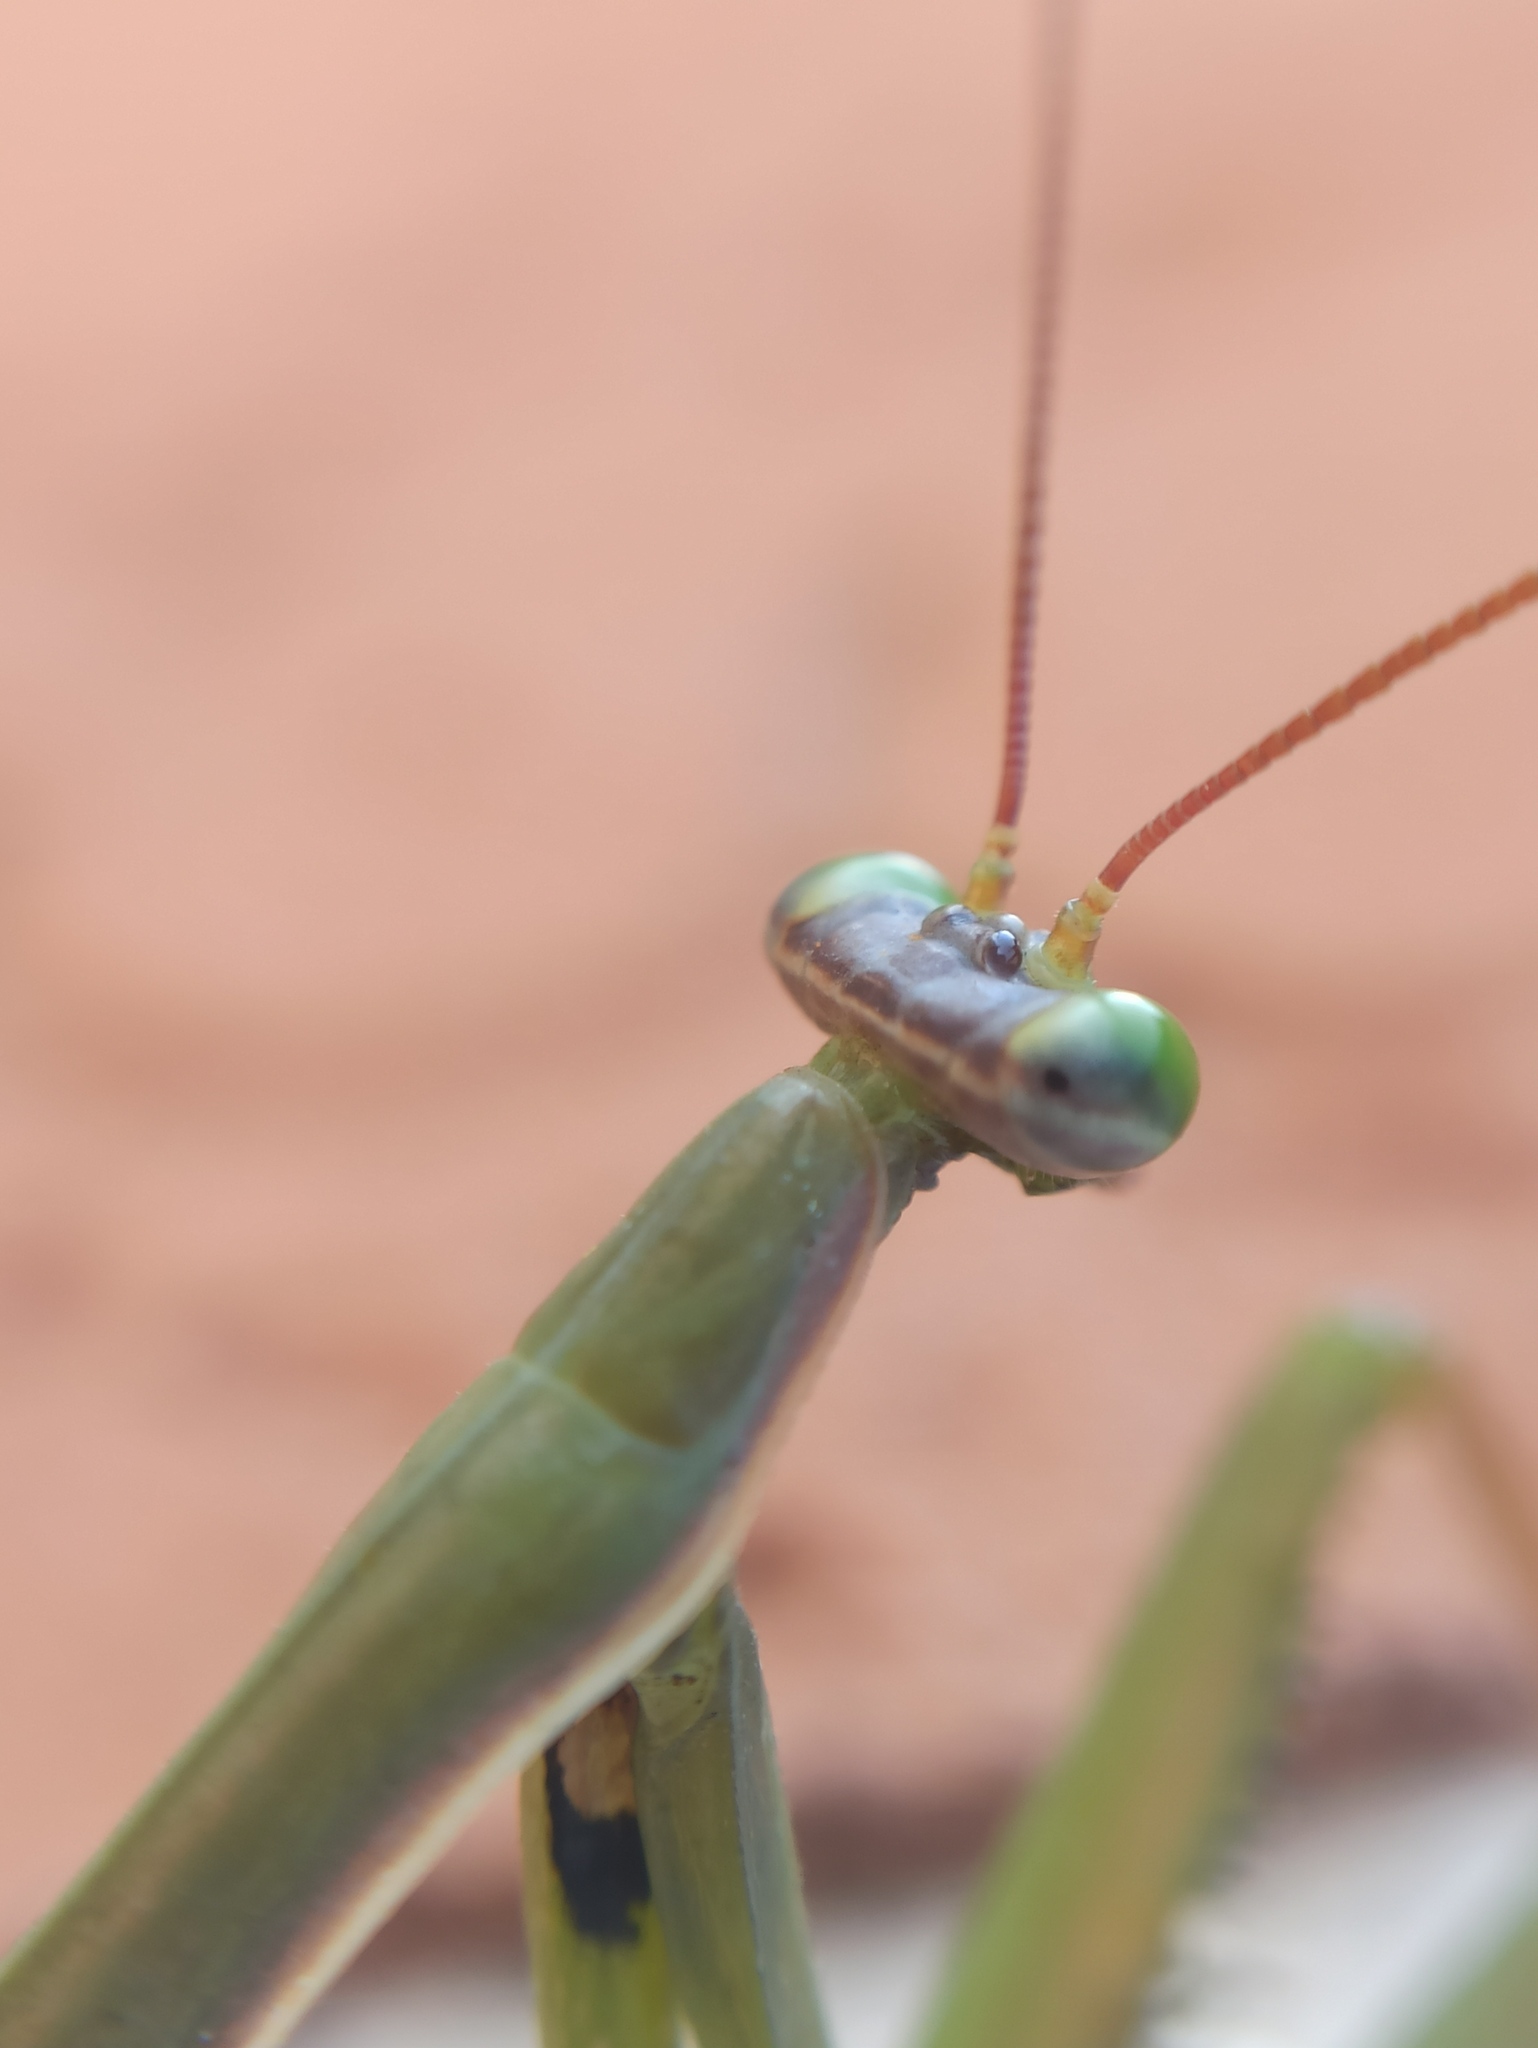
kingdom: Animalia
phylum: Arthropoda
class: Insecta
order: Mantodea
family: Mantidae
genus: Mantis
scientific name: Mantis religiosa
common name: Praying mantis
